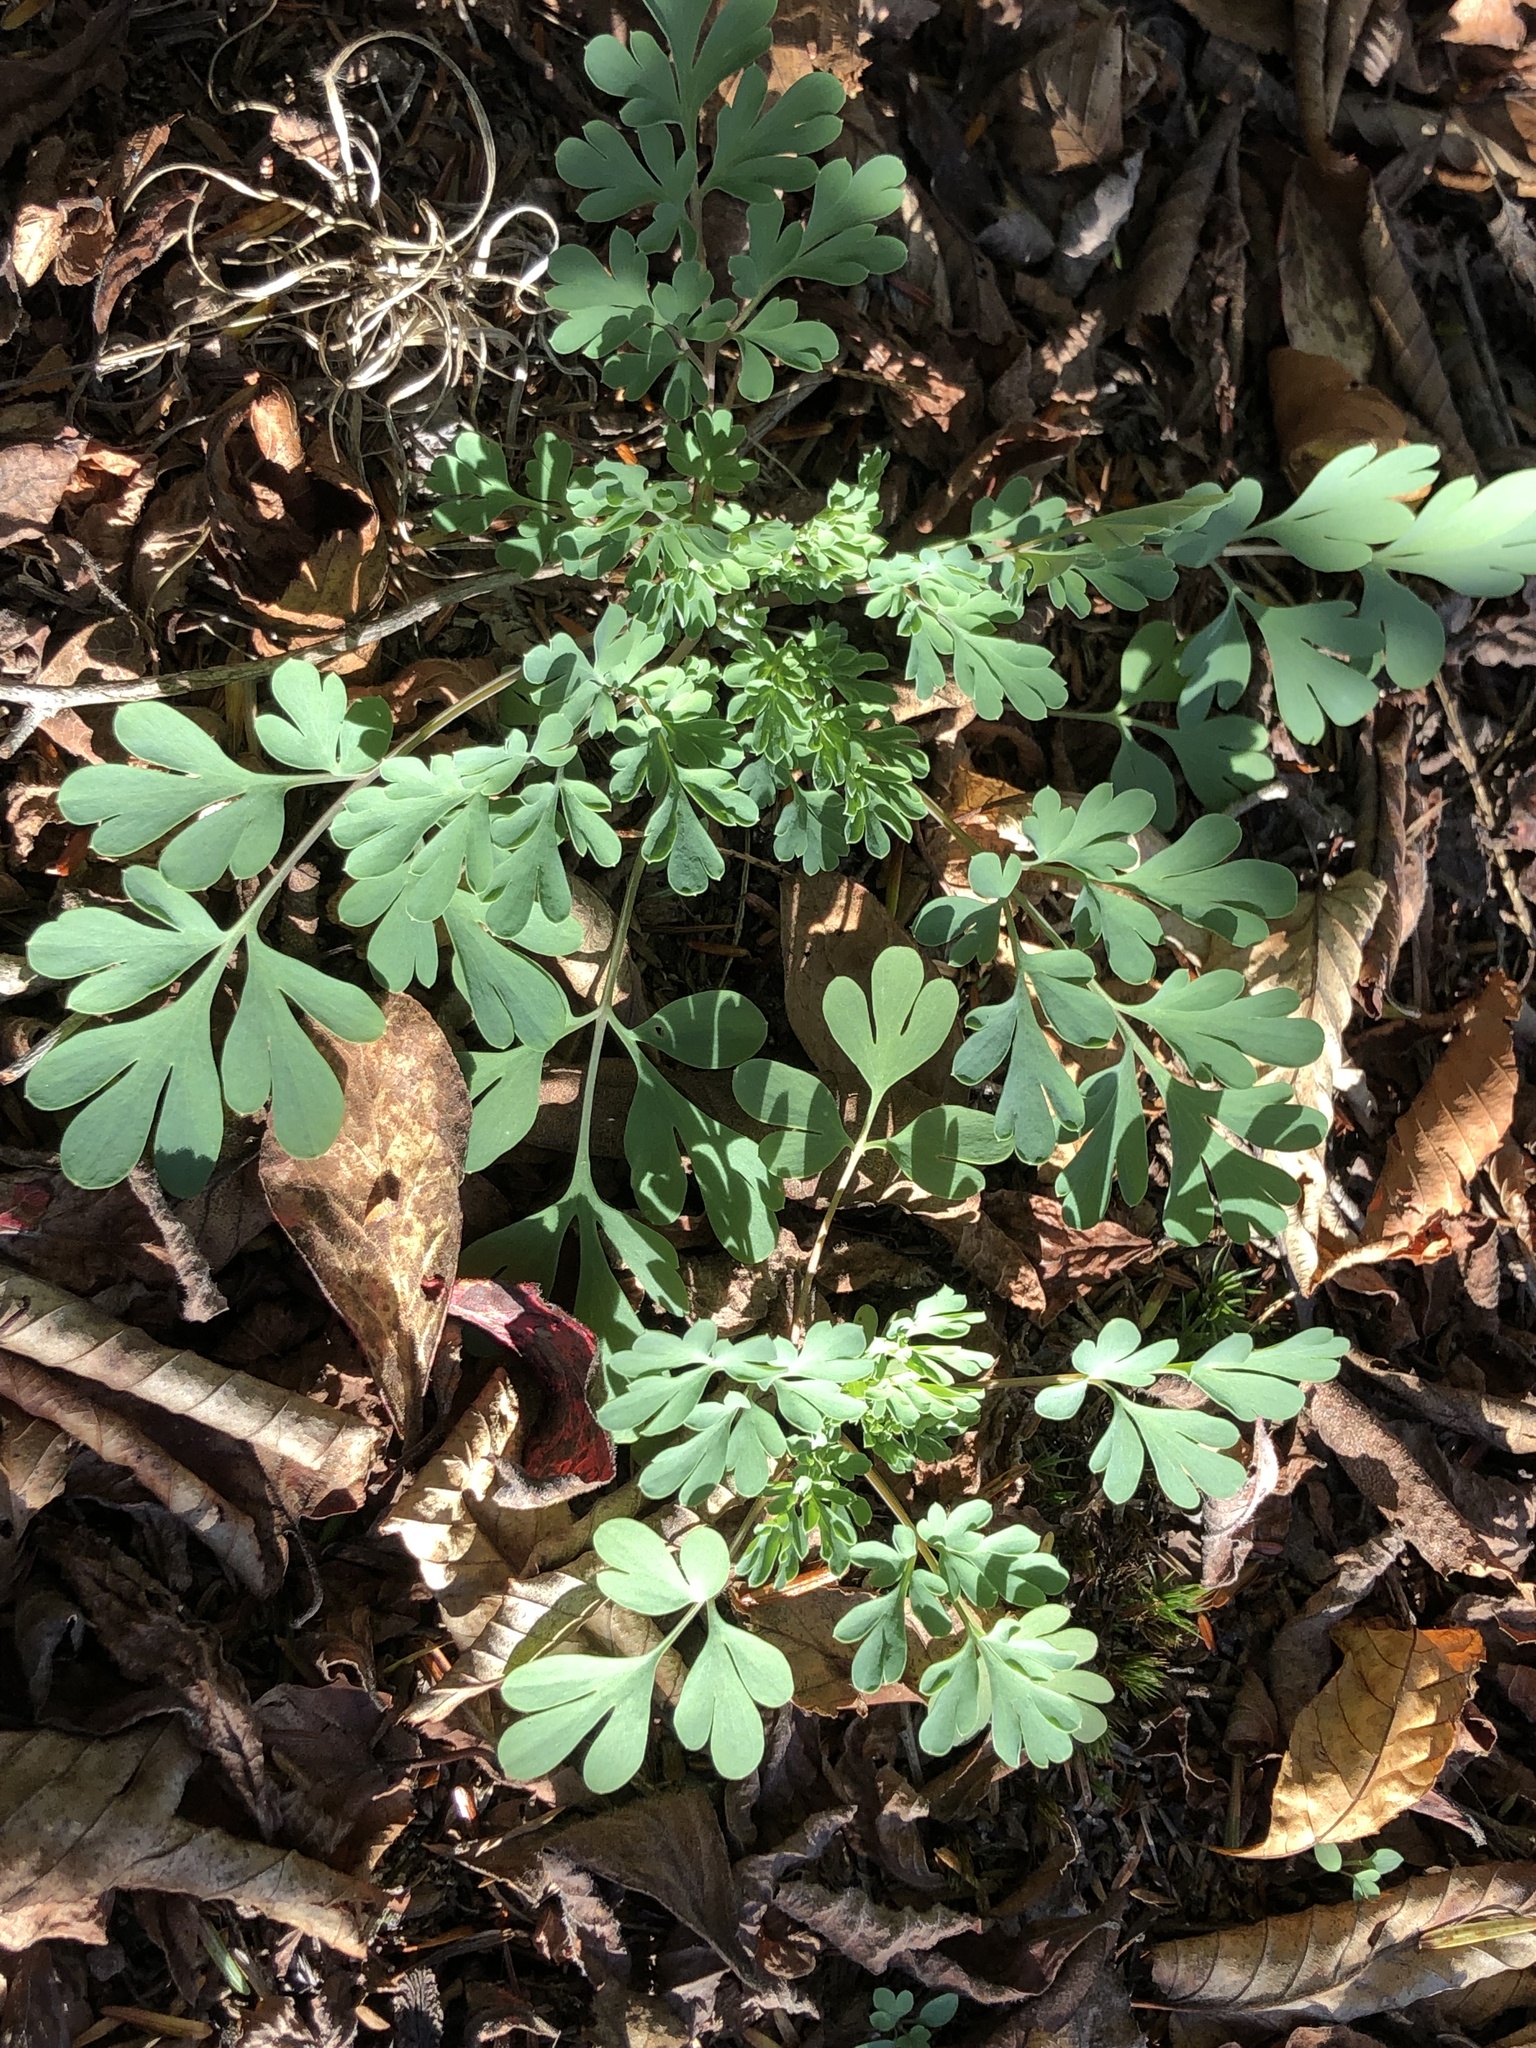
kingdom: Plantae
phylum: Tracheophyta
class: Magnoliopsida
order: Ranunculales
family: Papaveraceae
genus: Capnoides
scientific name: Capnoides sempervirens
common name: Rock harlequin
